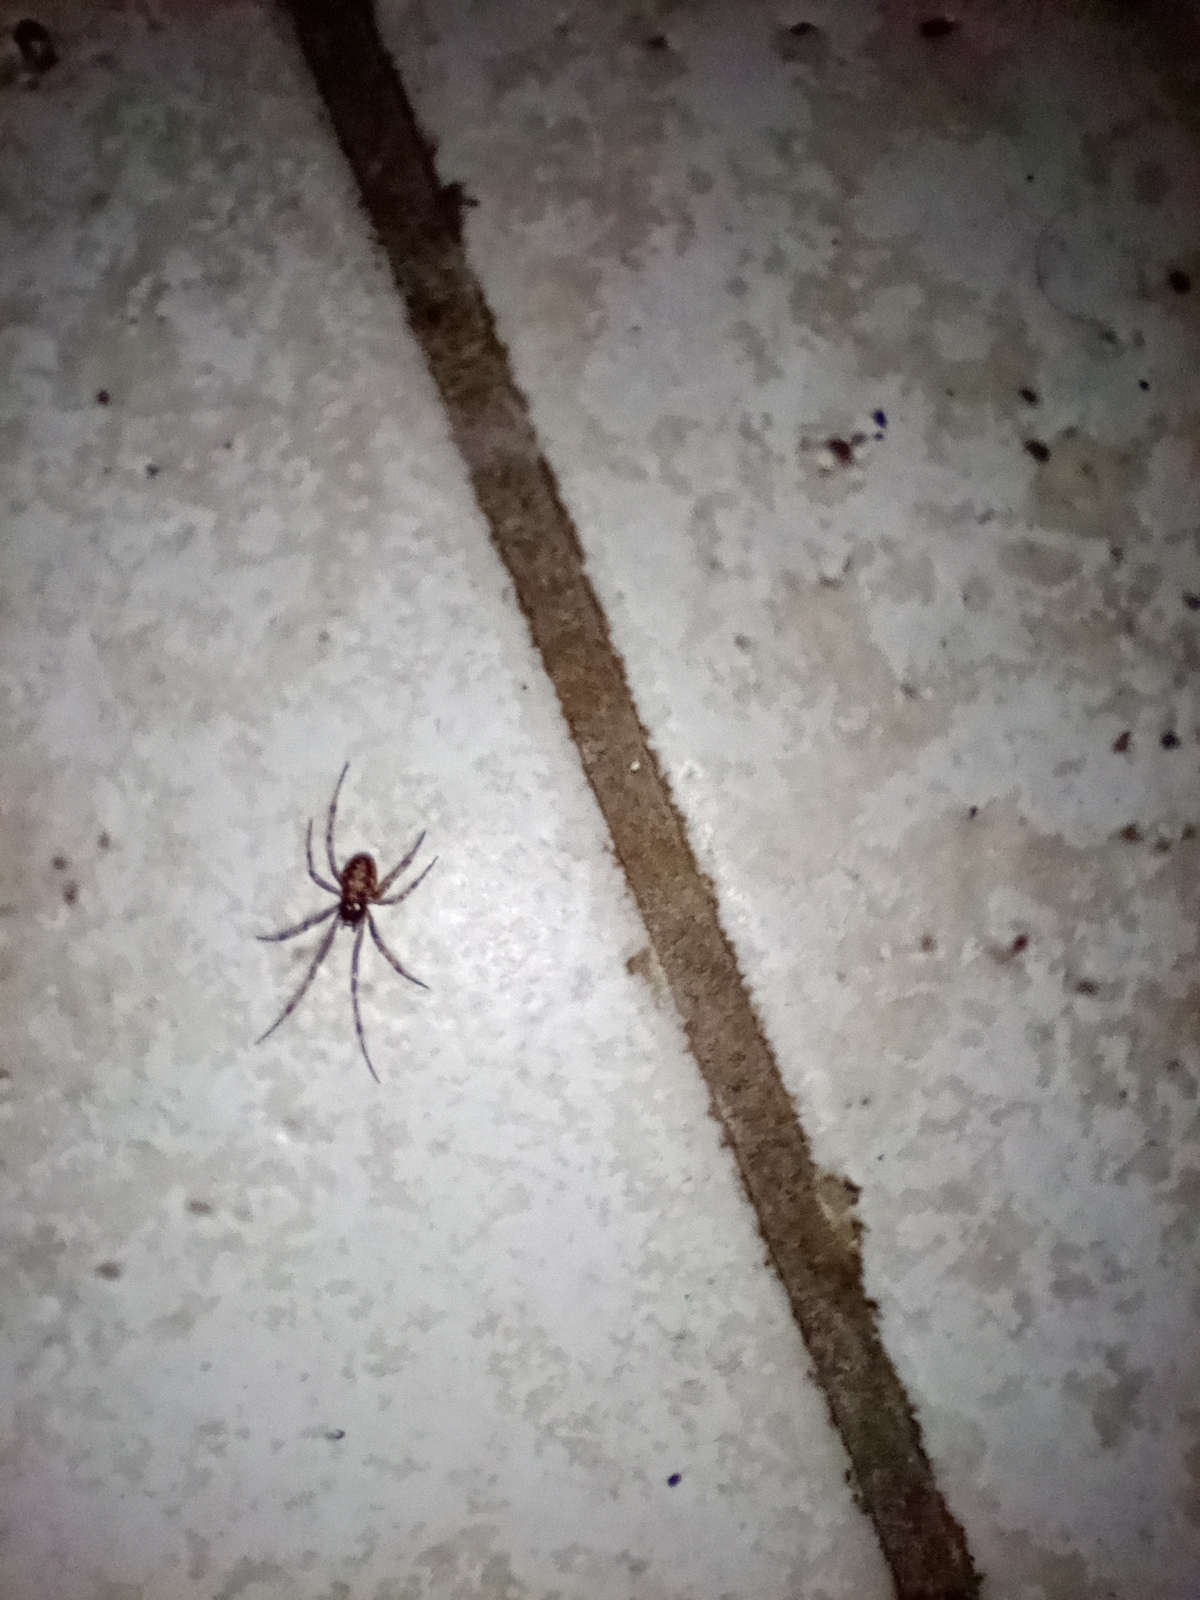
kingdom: Animalia
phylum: Arthropoda
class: Arachnida
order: Araneae
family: Theridiidae
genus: Steatoda
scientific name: Steatoda triangulosa
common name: Triangulate bud spider
